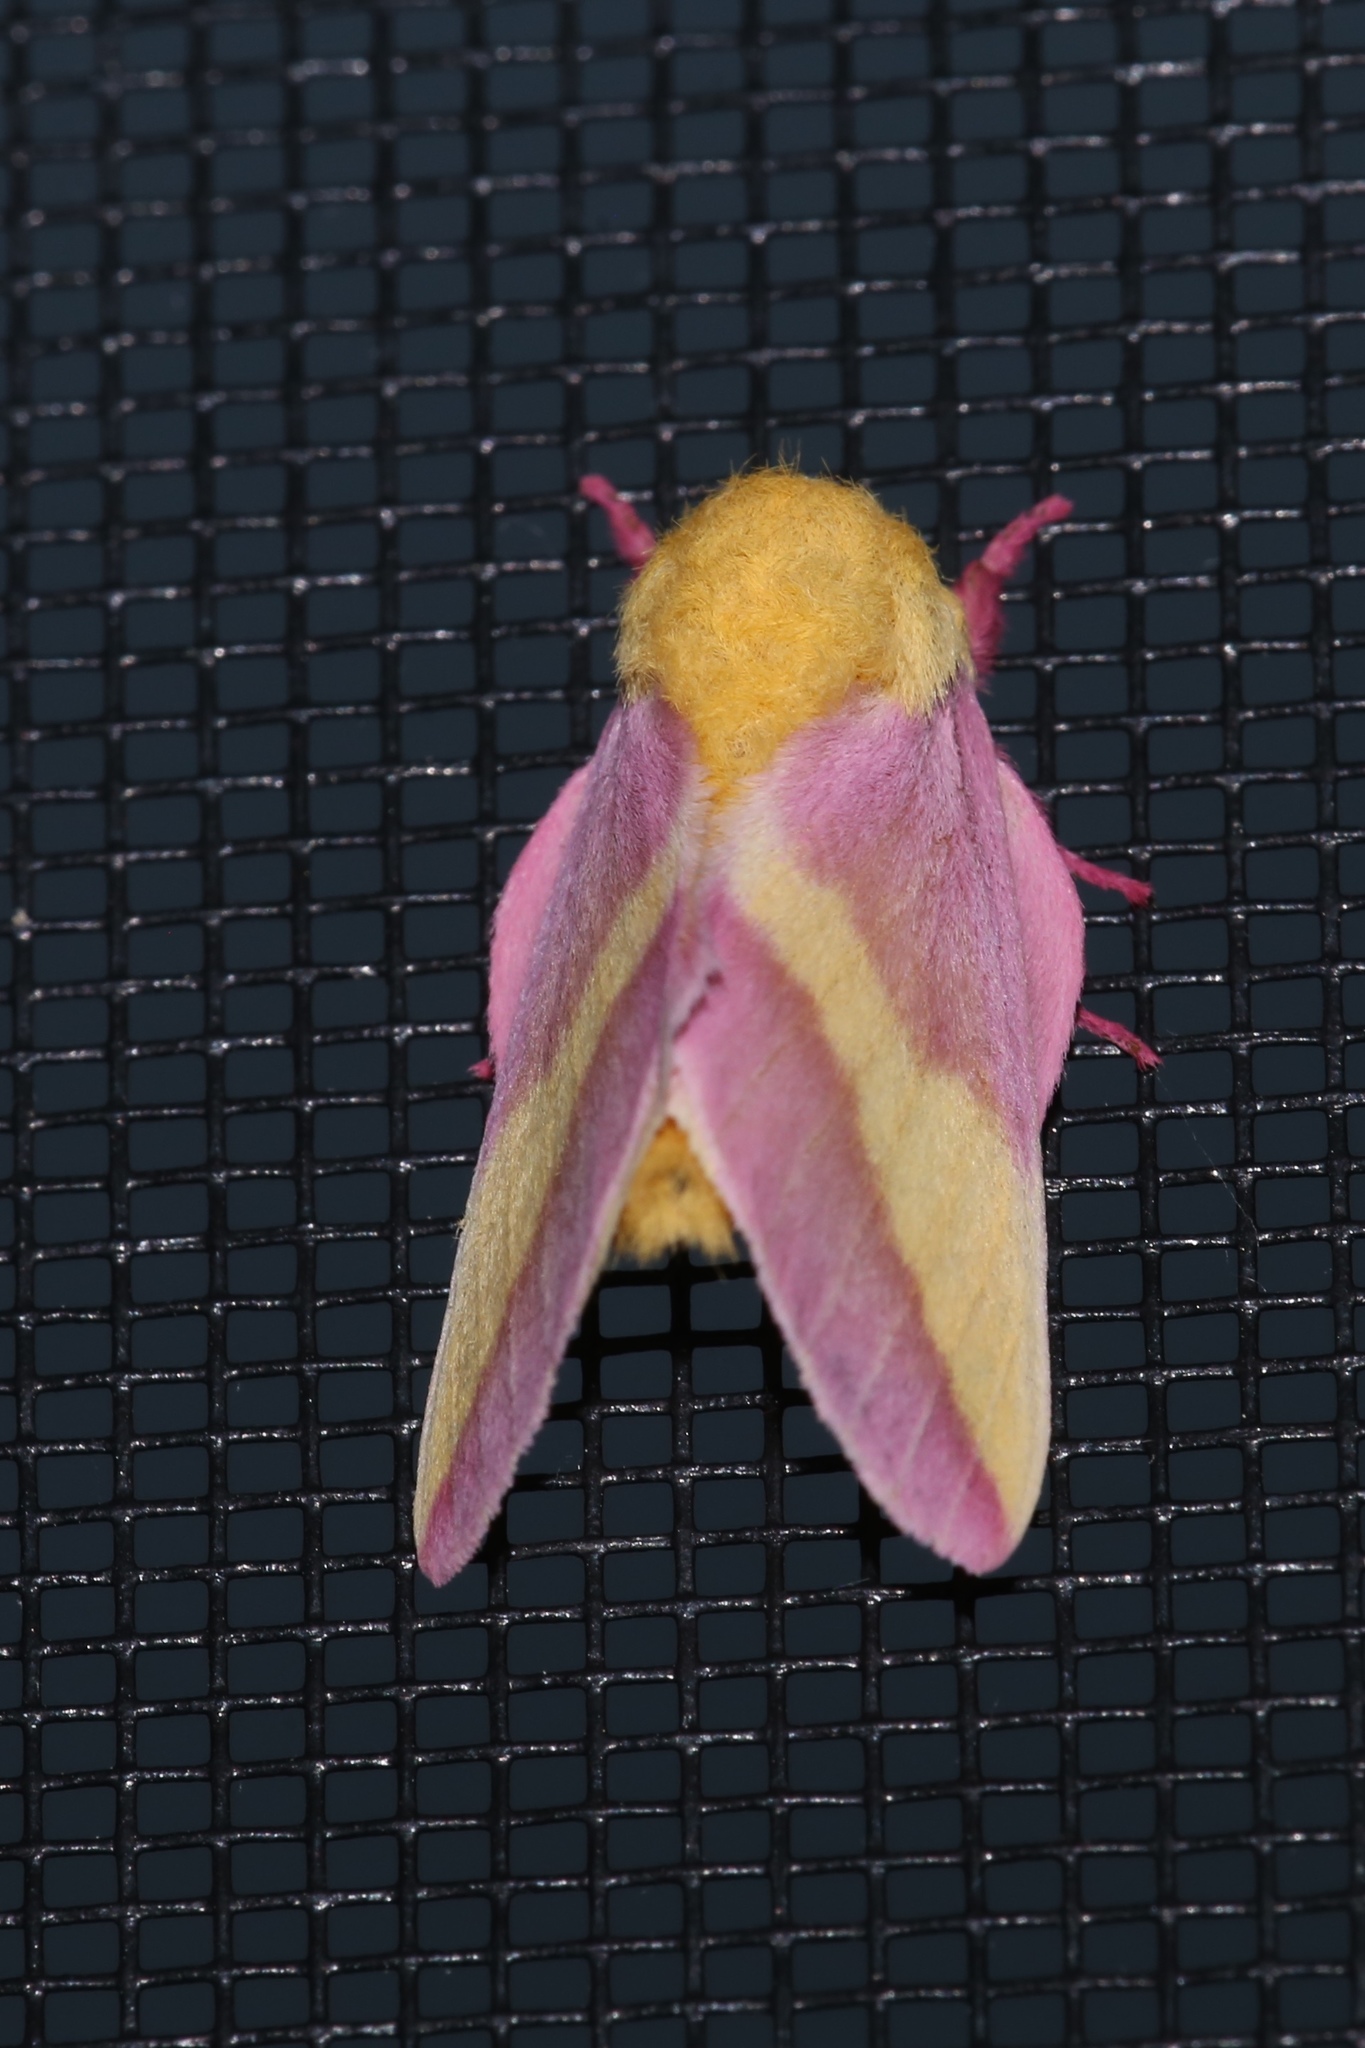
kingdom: Animalia
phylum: Arthropoda
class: Insecta
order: Lepidoptera
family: Saturniidae
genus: Dryocampa
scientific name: Dryocampa rubicunda
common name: Rosy maple moth
